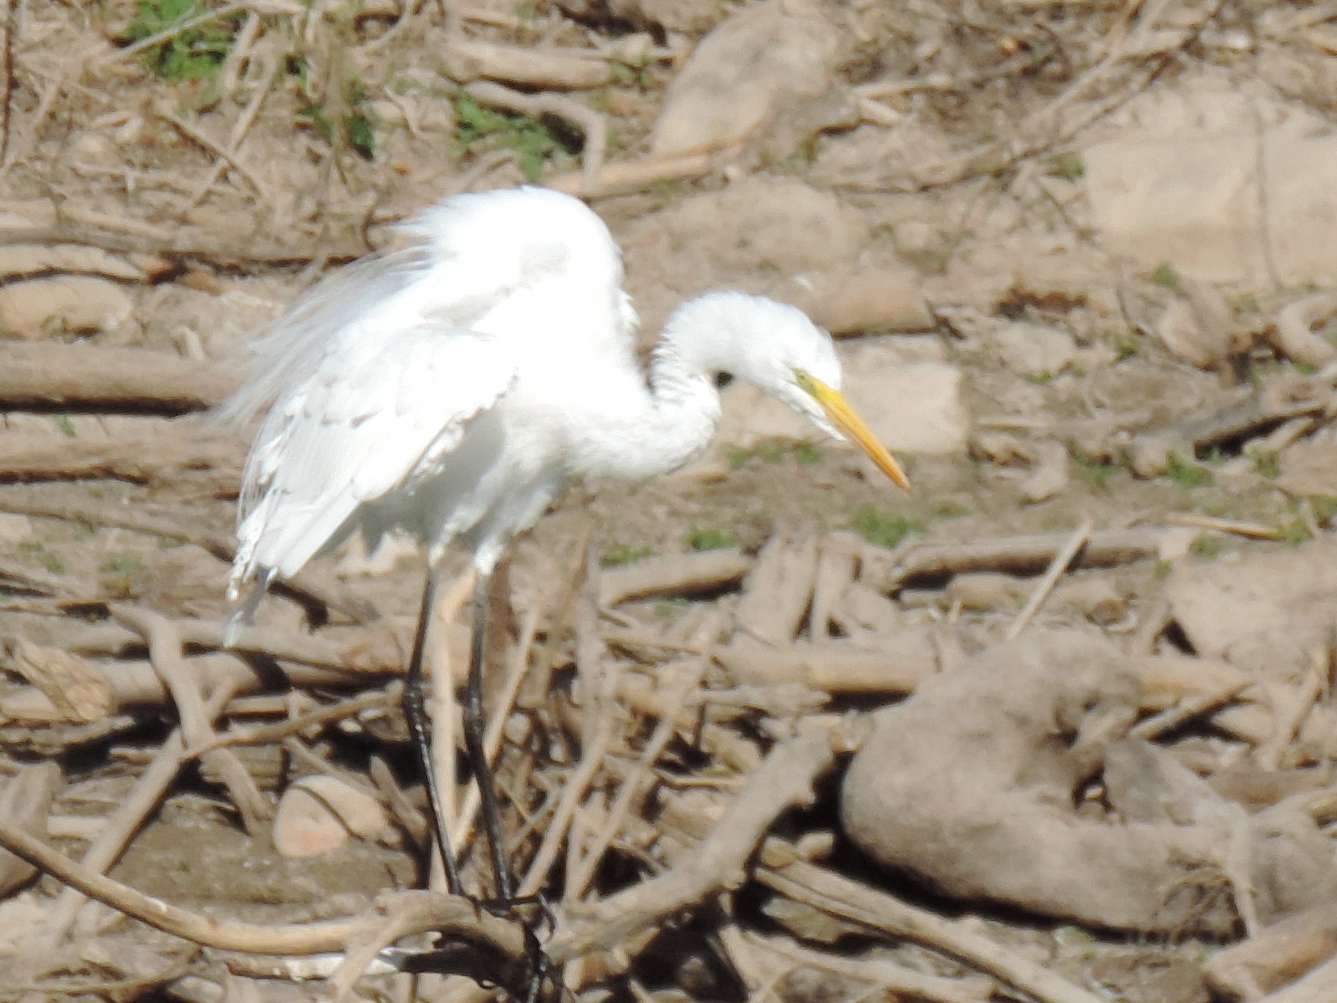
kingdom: Animalia
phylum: Chordata
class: Aves
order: Pelecaniformes
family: Ardeidae
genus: Ardea
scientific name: Ardea alba
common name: Great egret
